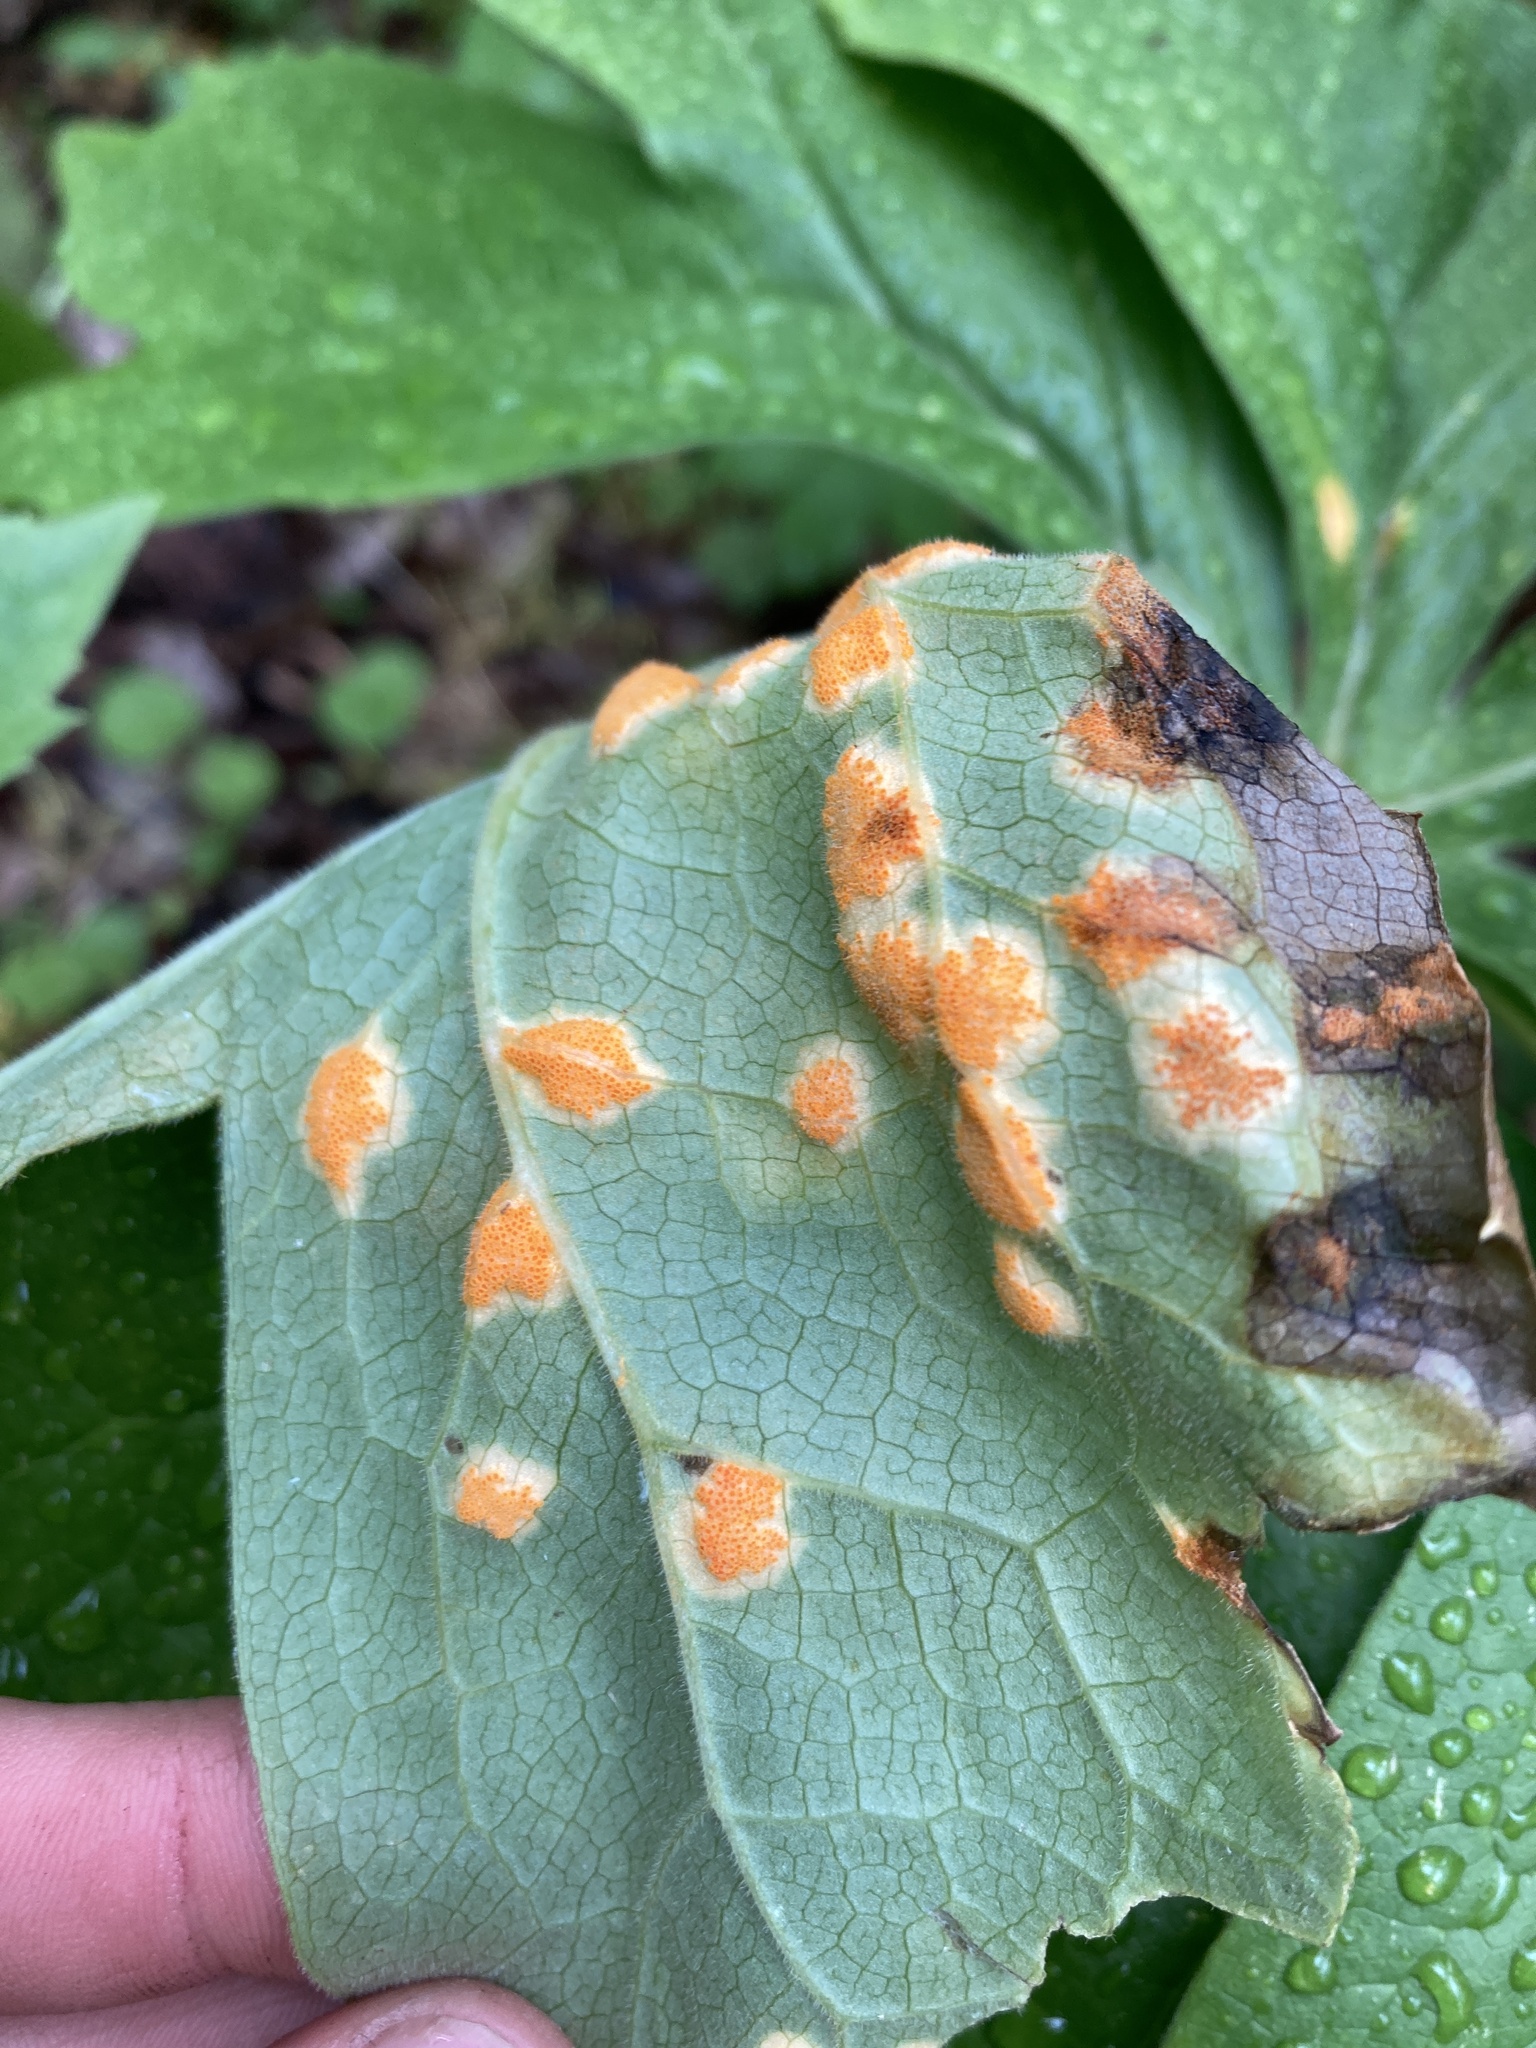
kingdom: Fungi
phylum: Basidiomycota
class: Pucciniomycetes
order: Pucciniales
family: Pucciniaceae
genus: Puccinia
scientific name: Puccinia podophylli
